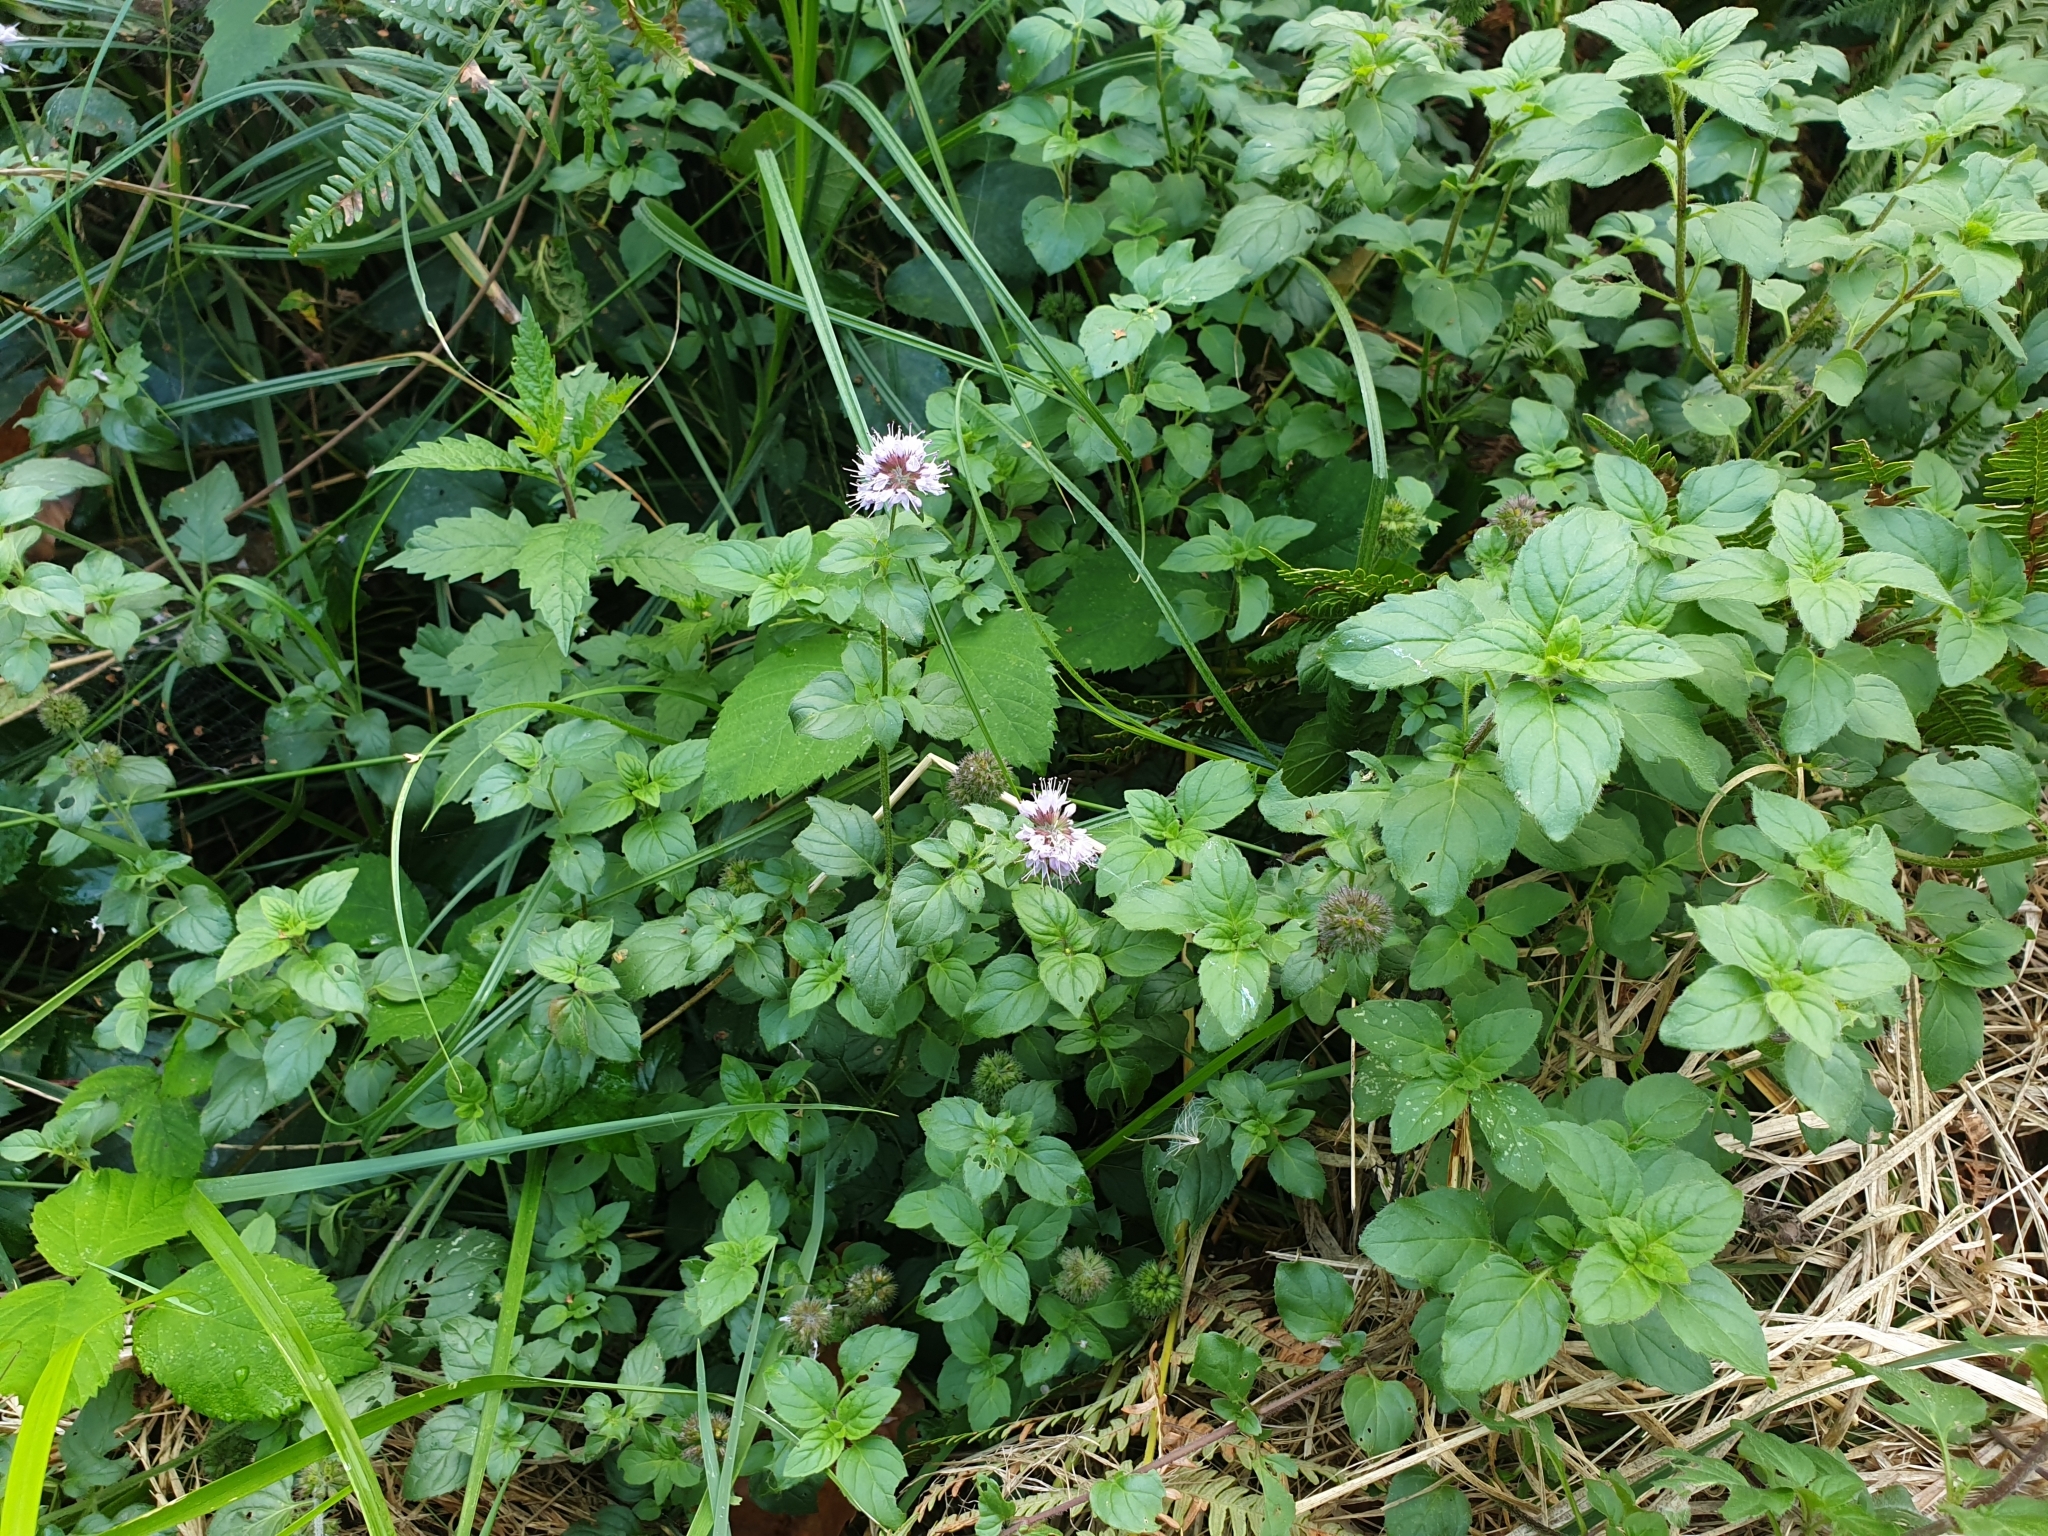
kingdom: Plantae
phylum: Tracheophyta
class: Magnoliopsida
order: Lamiales
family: Lamiaceae
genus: Mentha
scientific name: Mentha aquatica
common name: Water mint
